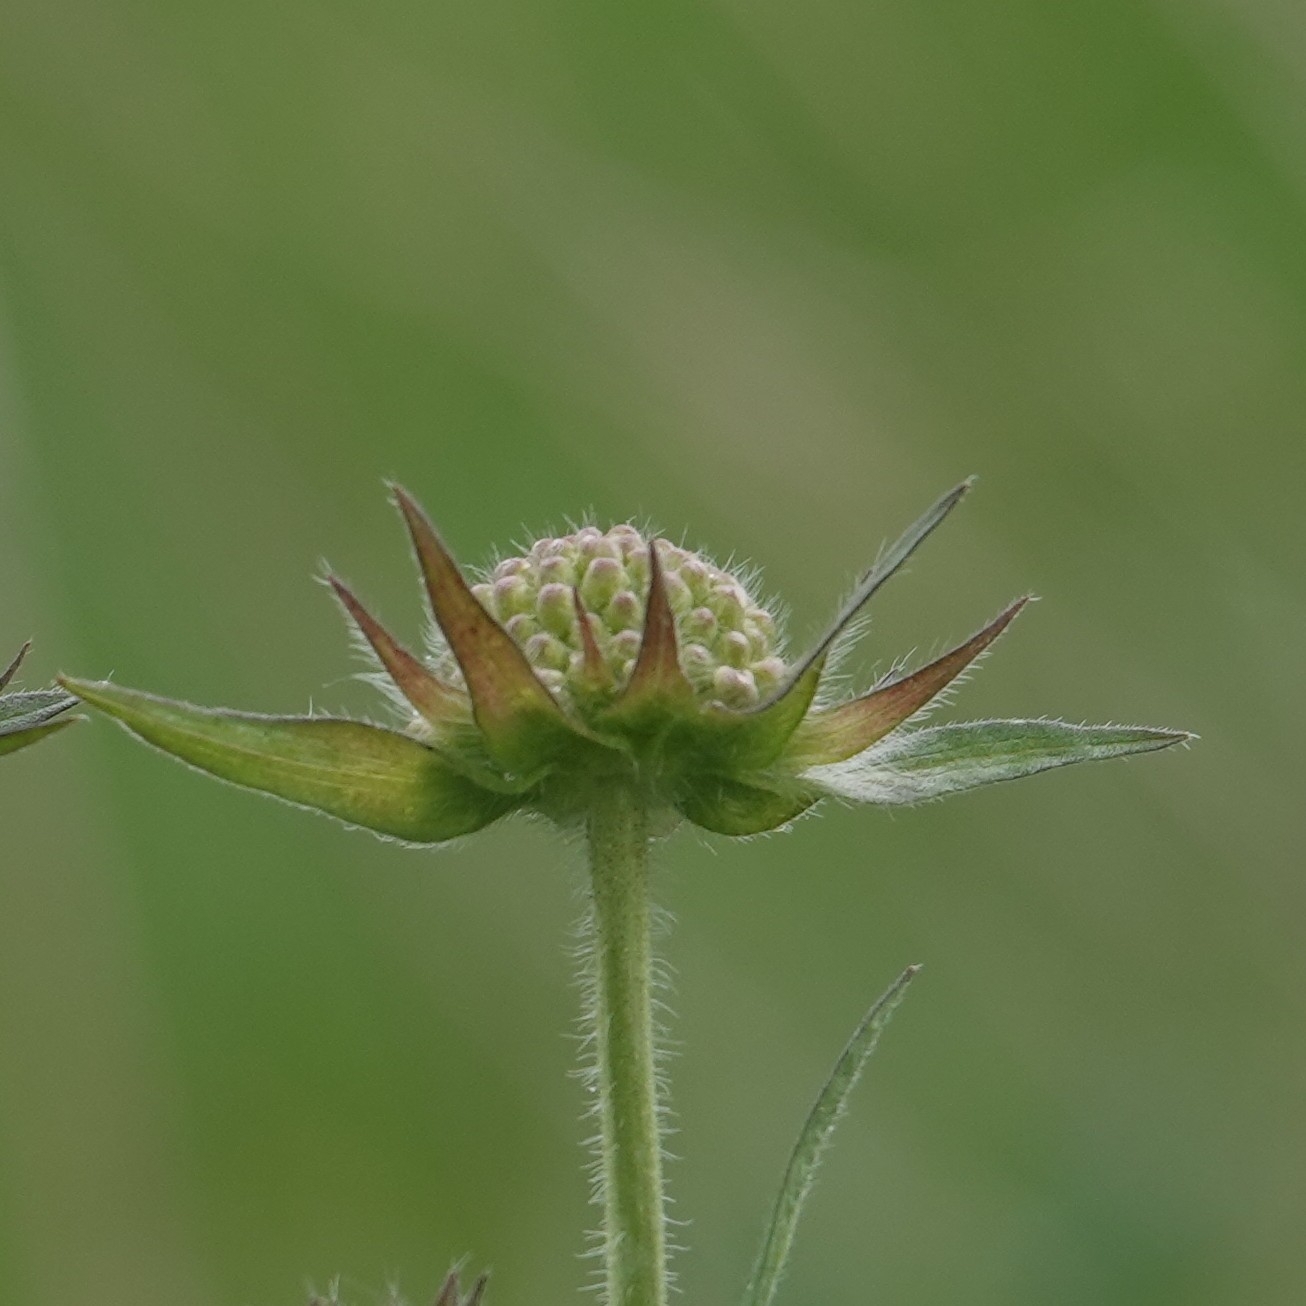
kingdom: Plantae
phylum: Tracheophyta
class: Magnoliopsida
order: Dipsacales
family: Caprifoliaceae
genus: Knautia
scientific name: Knautia arvensis
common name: Field scabiosa
